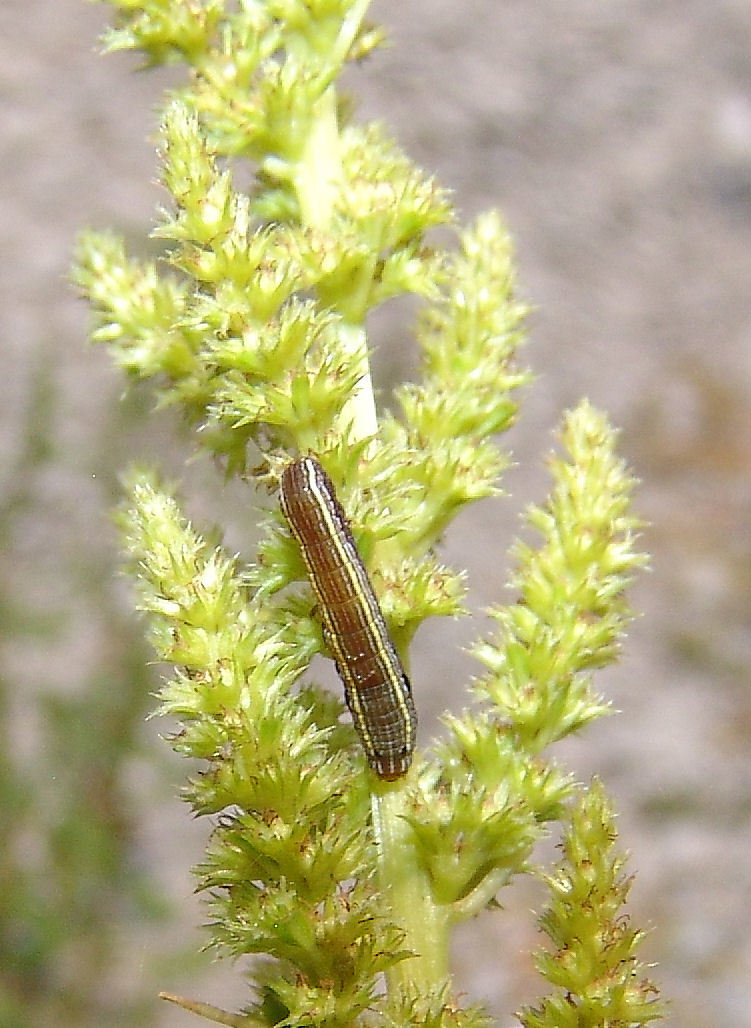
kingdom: Animalia
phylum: Arthropoda
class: Insecta
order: Lepidoptera
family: Noctuidae
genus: Spodoptera
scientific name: Spodoptera ornithogalli
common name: Yellow-striped armyworm
